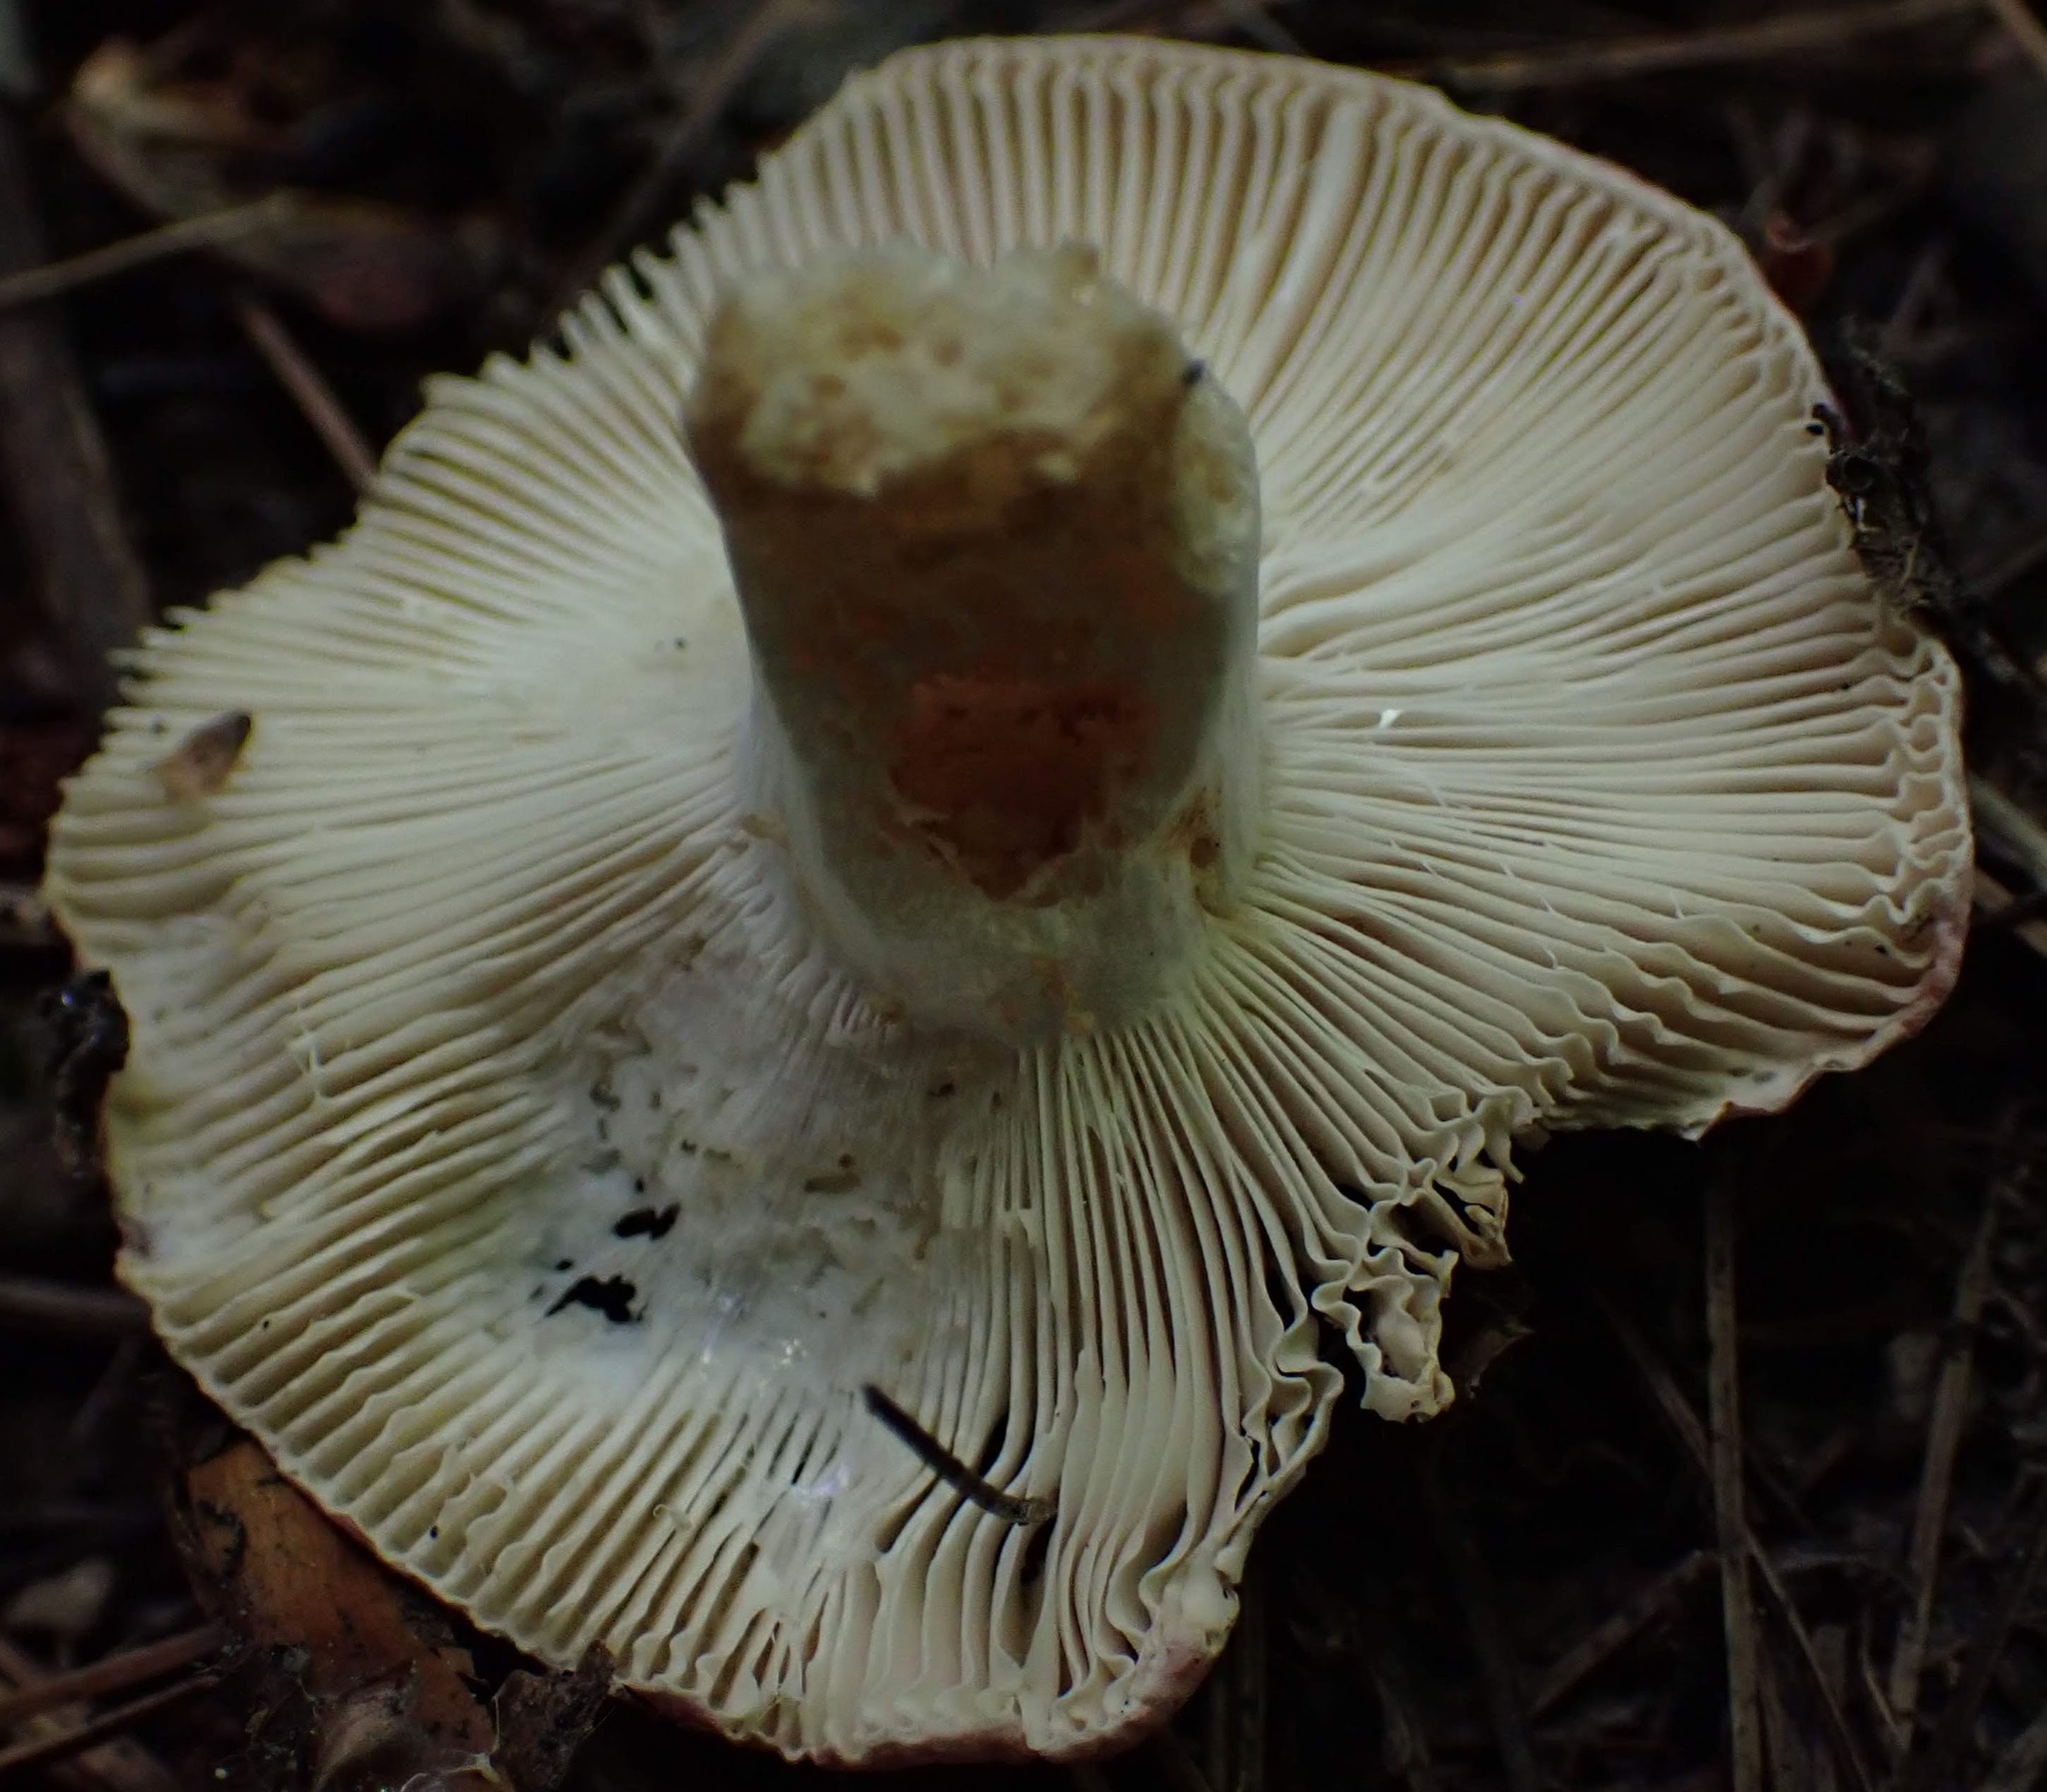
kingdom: Fungi
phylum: Basidiomycota
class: Agaricomycetes
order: Russulales
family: Russulaceae
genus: Russula
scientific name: Russula
